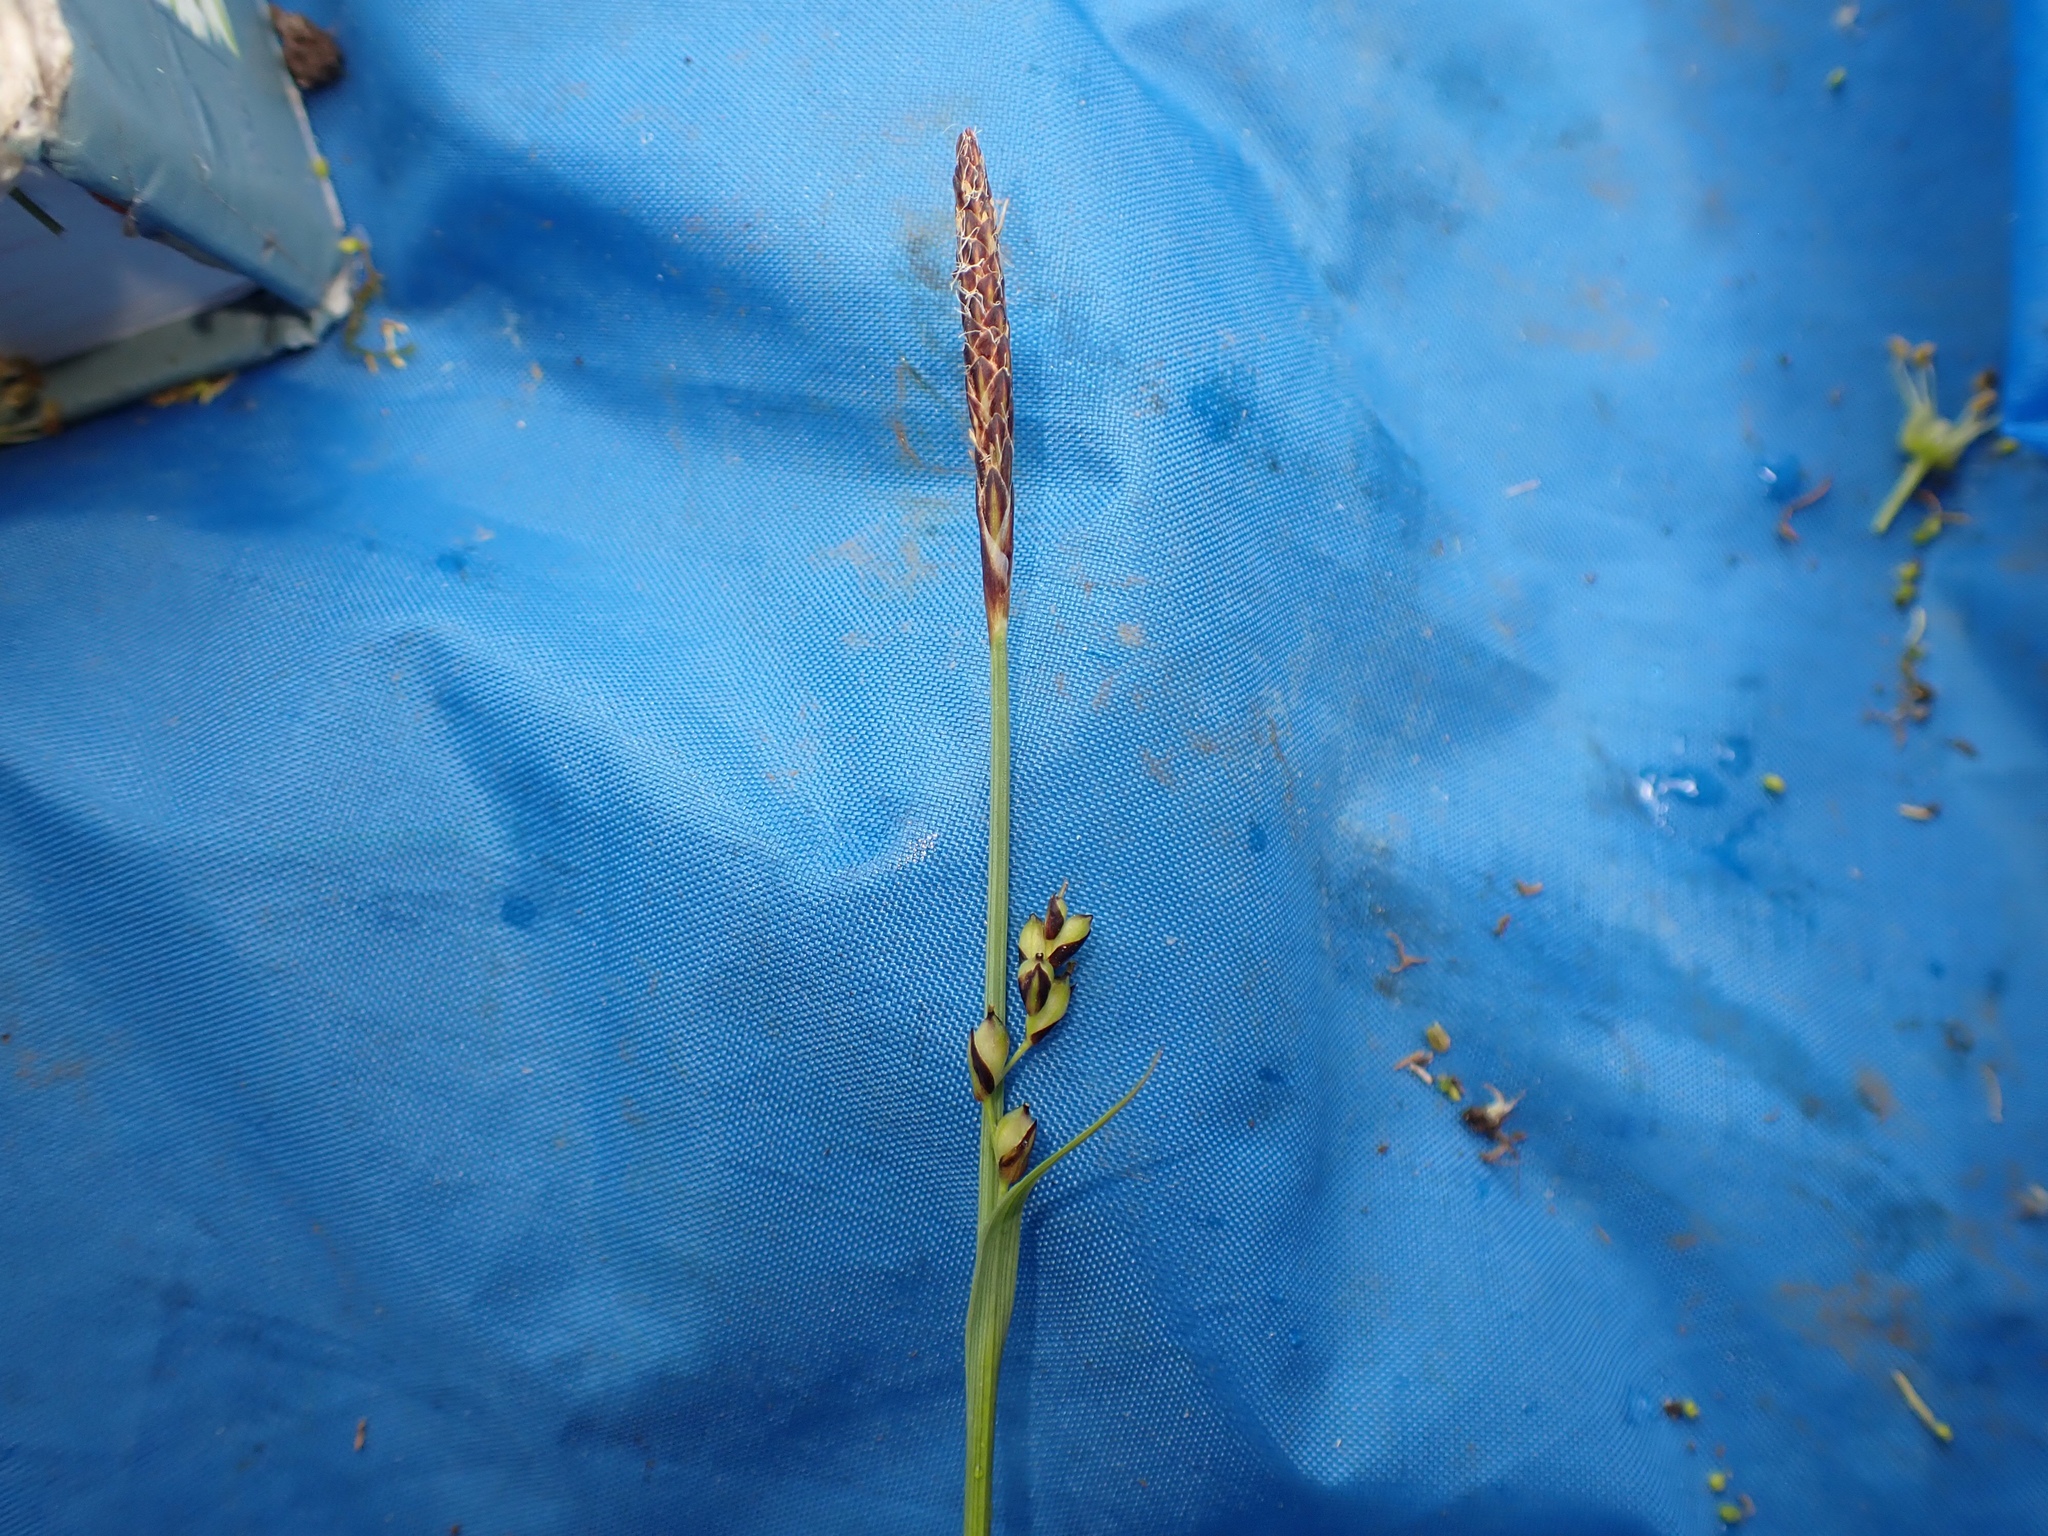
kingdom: Plantae
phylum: Tracheophyta
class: Liliopsida
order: Poales
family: Cyperaceae
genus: Carex
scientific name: Carex panicea
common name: Carnation sedge
